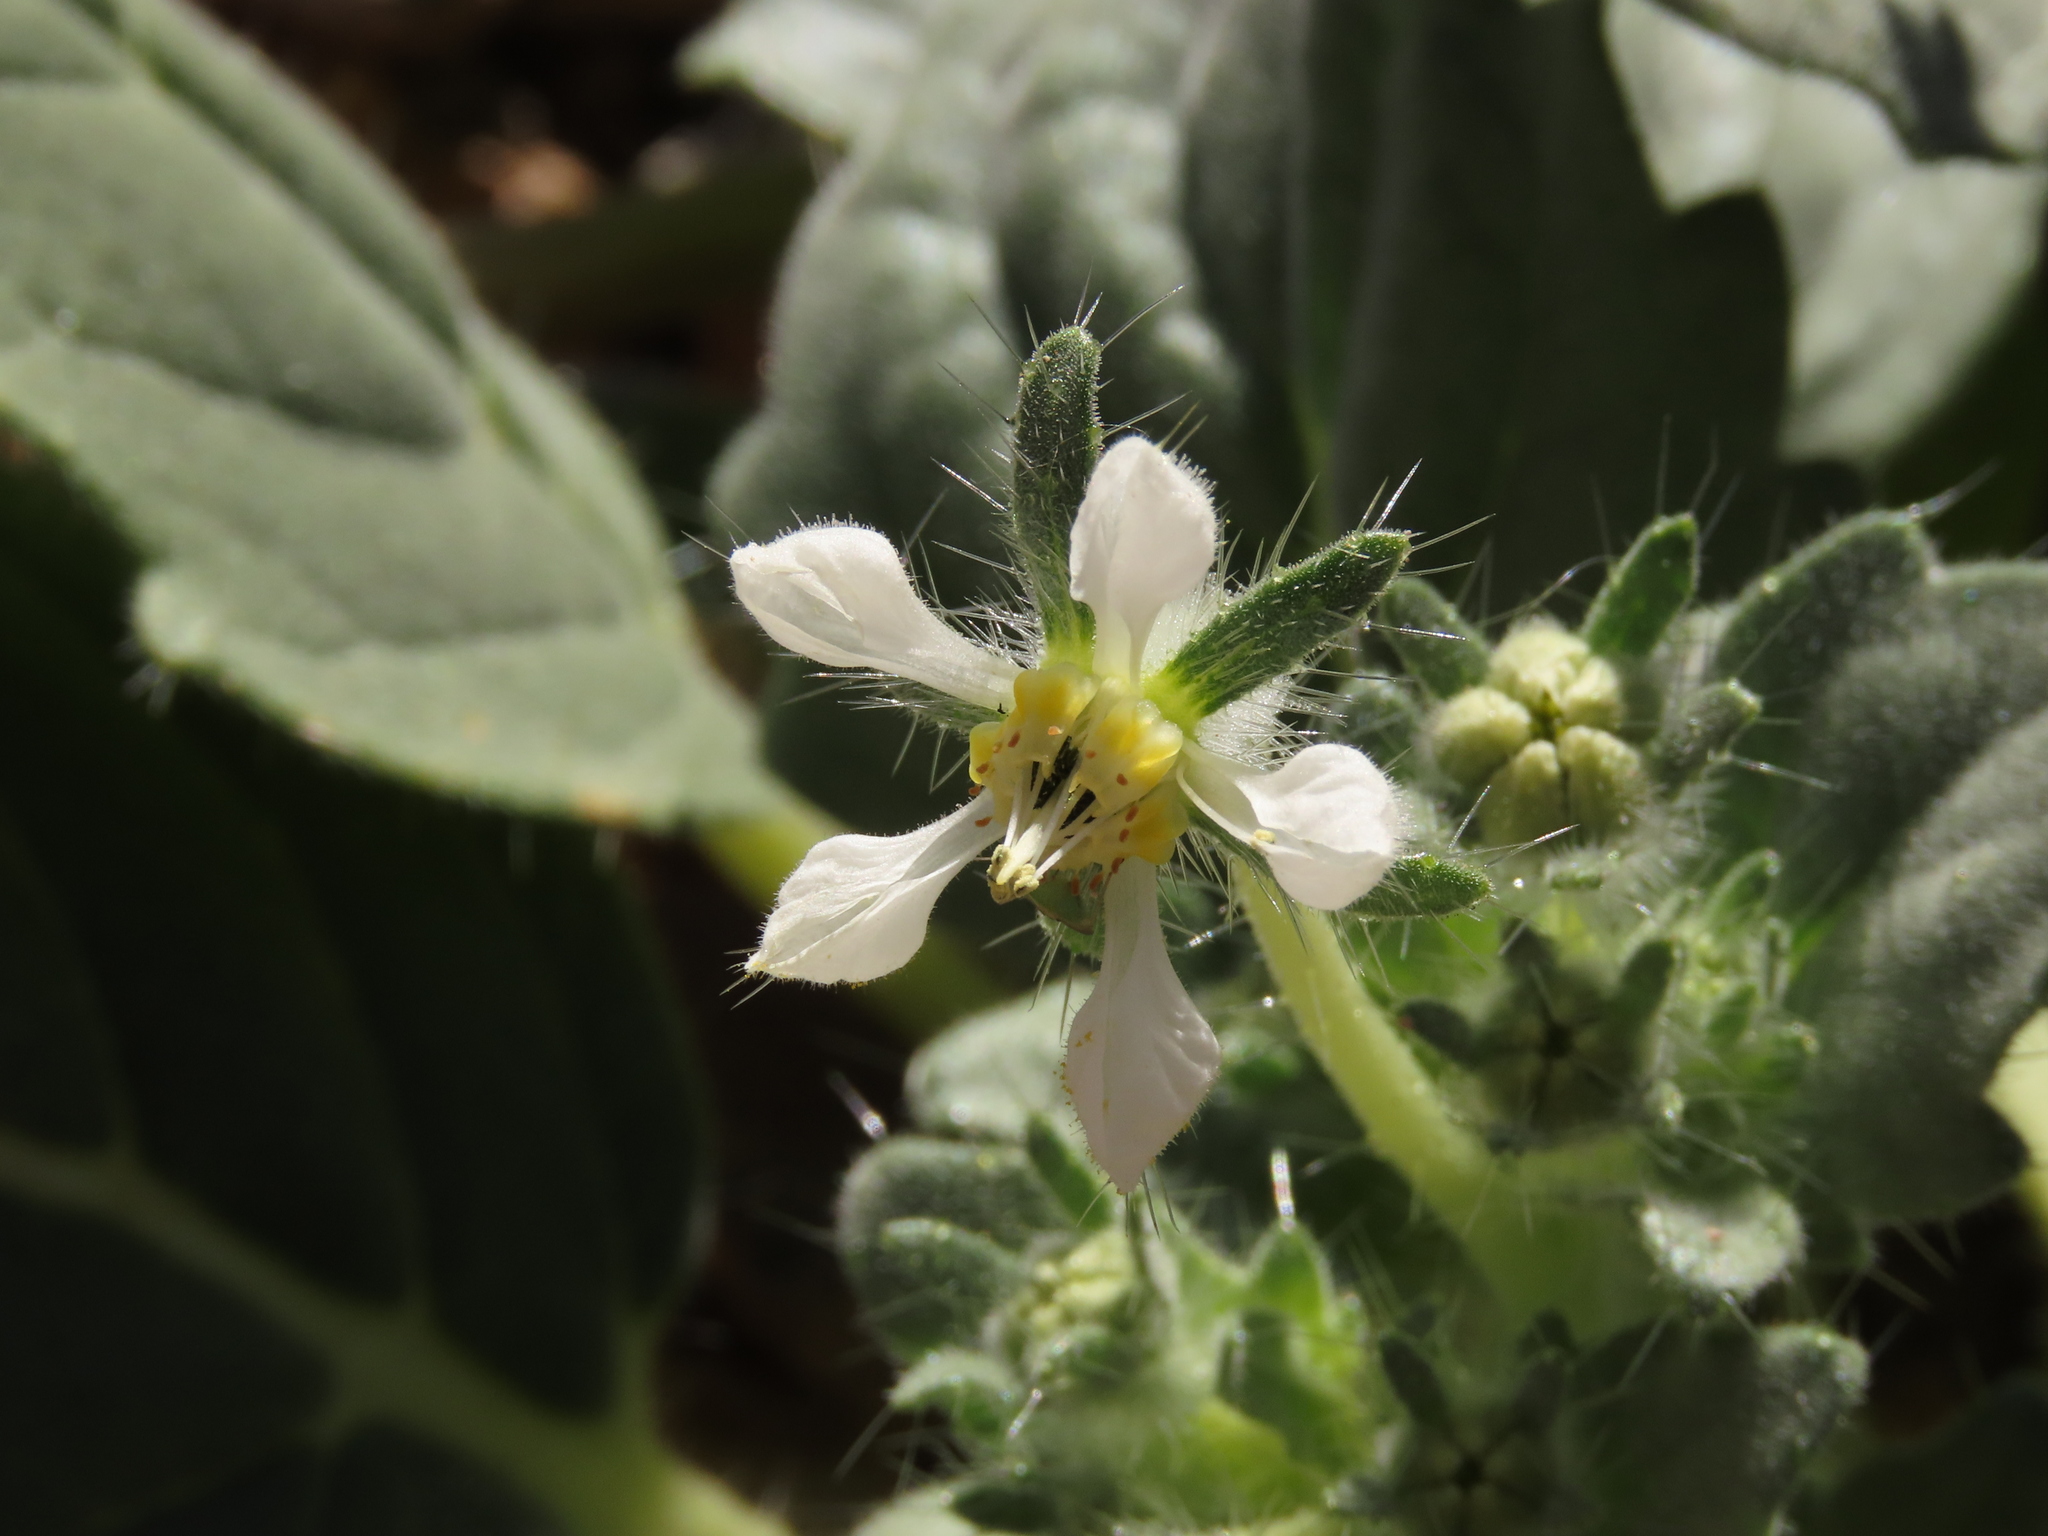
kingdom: Plantae
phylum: Tracheophyta
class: Magnoliopsida
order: Cornales
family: Loasaceae
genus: Presliophytum
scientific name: Presliophytum malesherbioides
